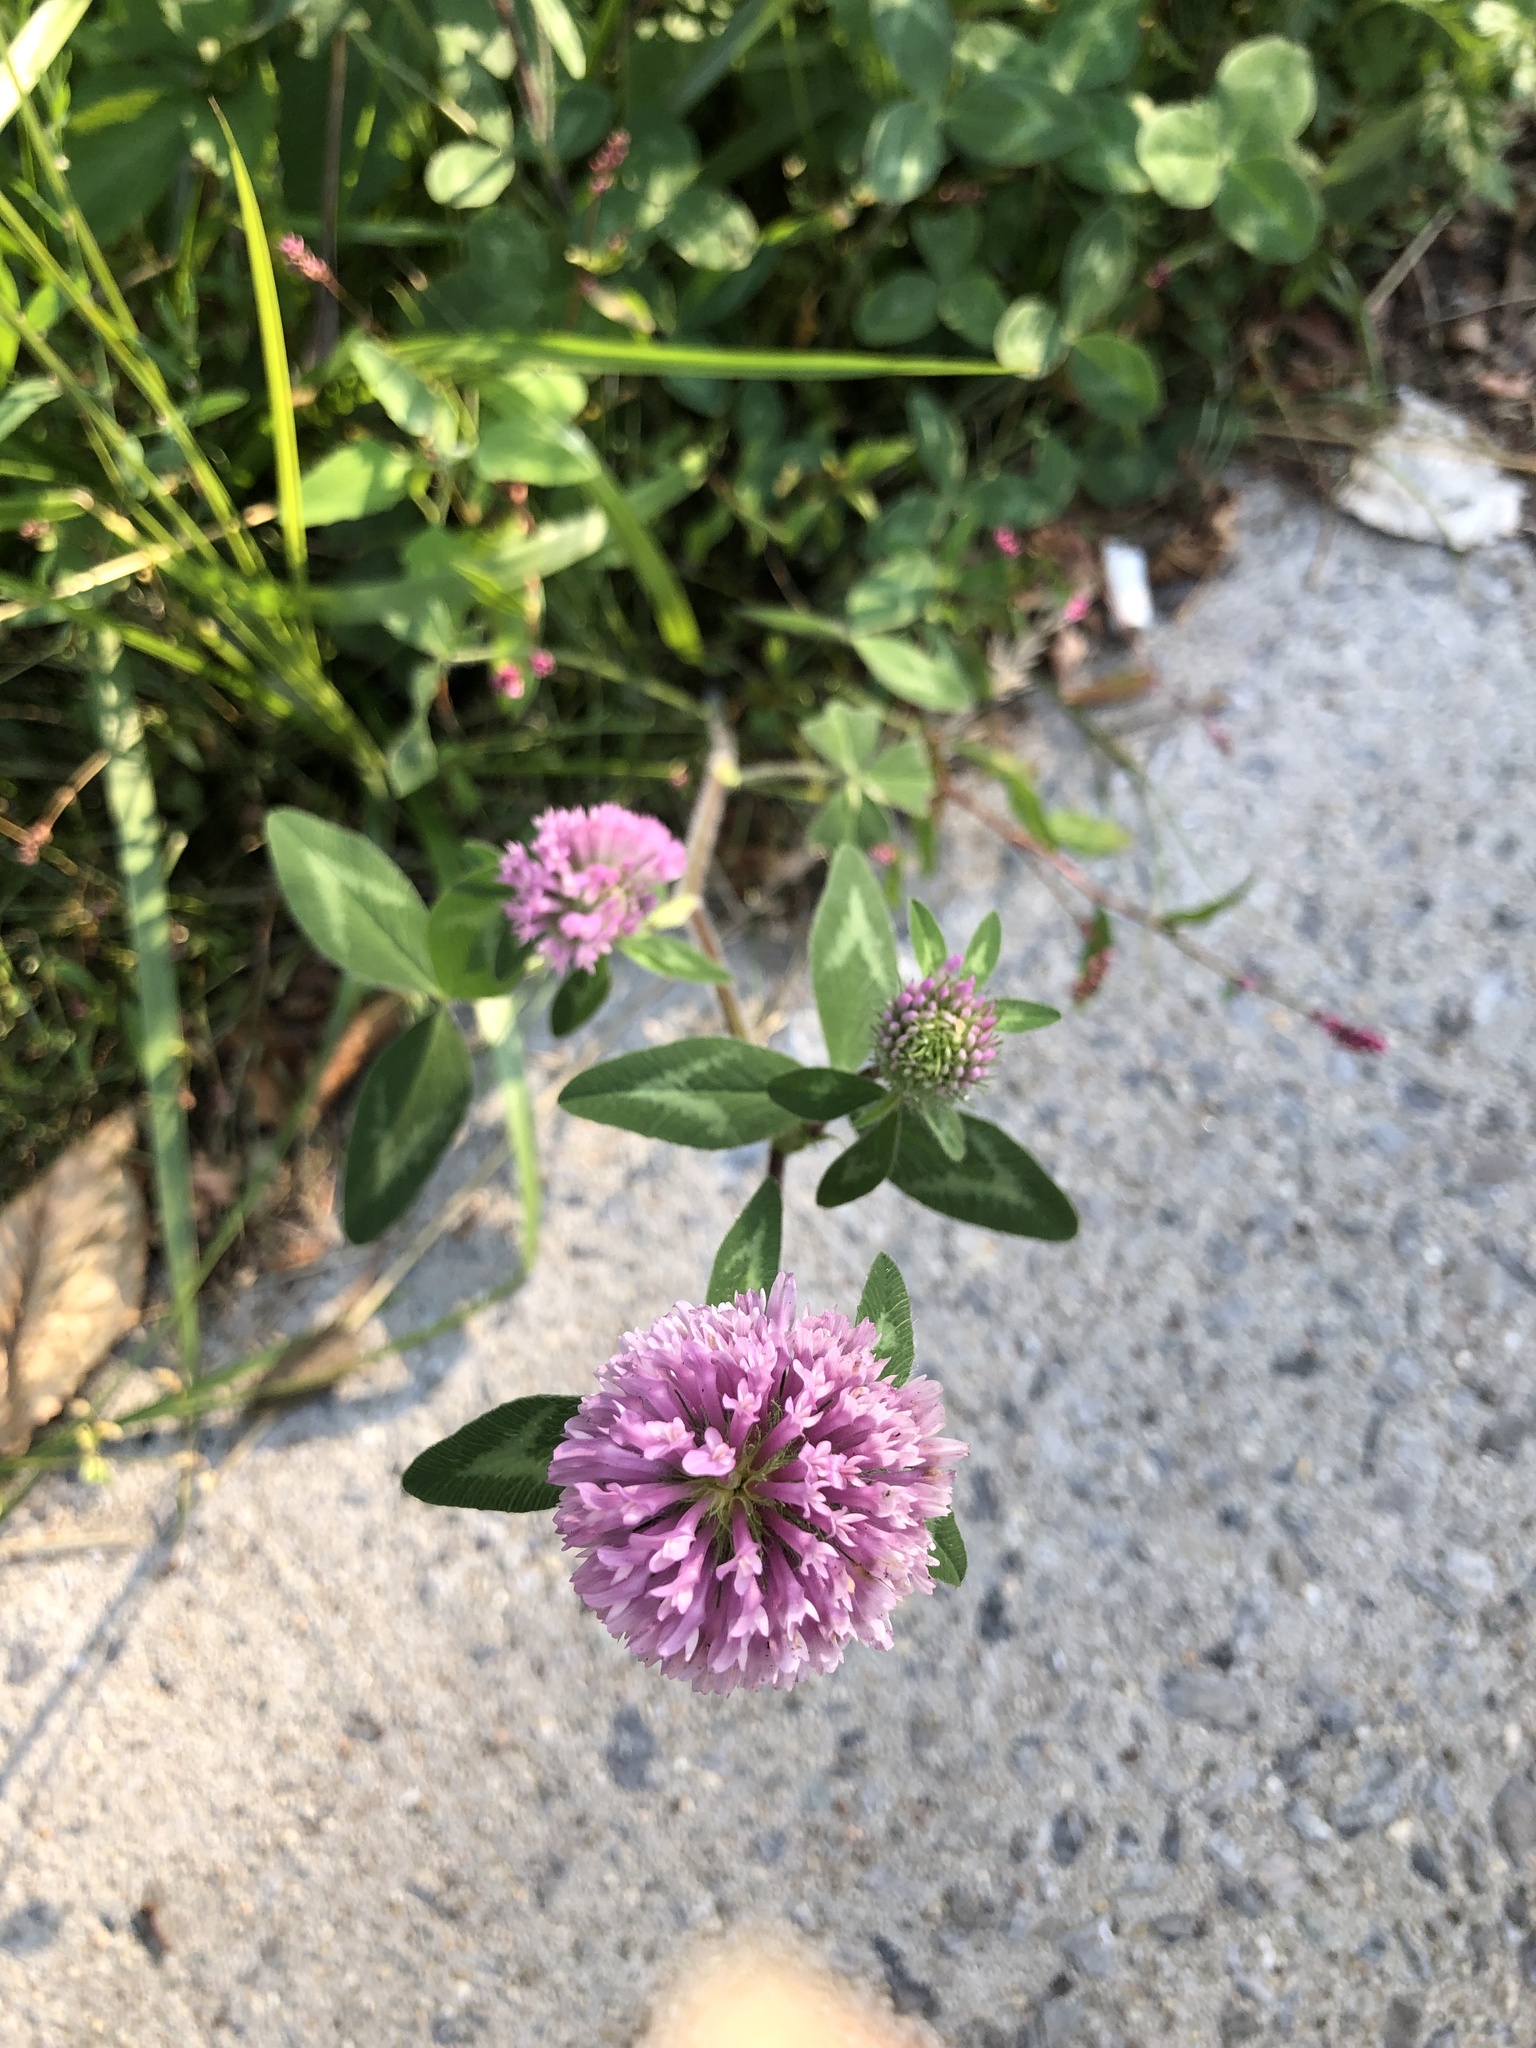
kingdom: Plantae
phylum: Tracheophyta
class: Magnoliopsida
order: Fabales
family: Fabaceae
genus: Trifolium
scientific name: Trifolium pratense
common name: Red clover
